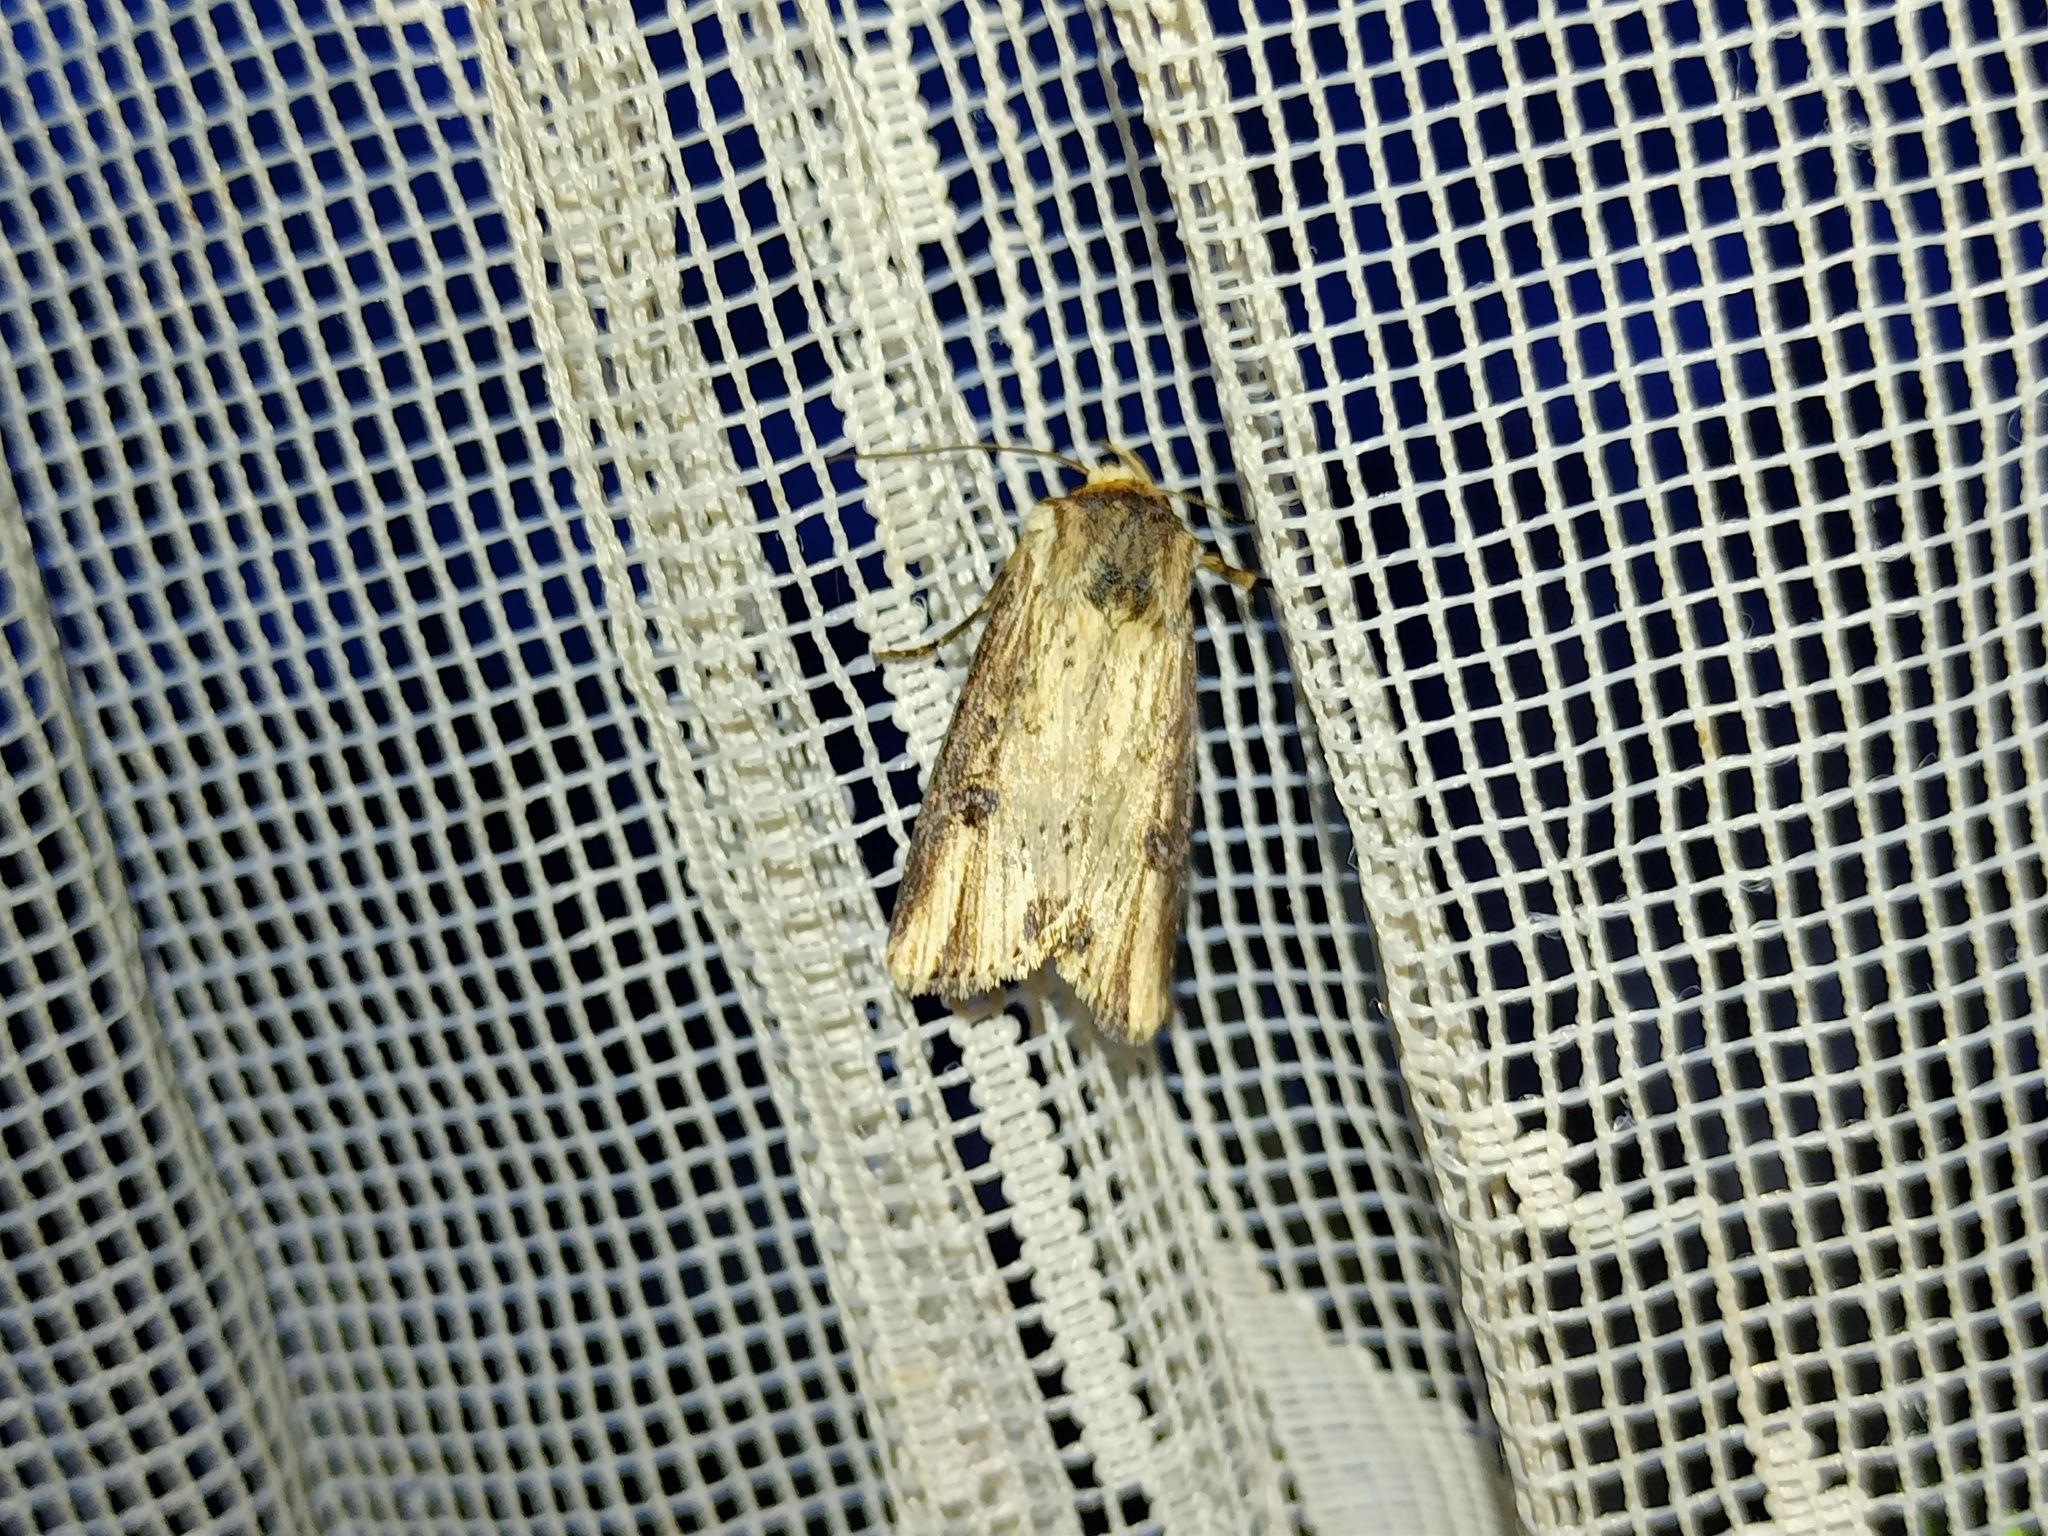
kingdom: Animalia
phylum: Arthropoda
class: Insecta
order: Lepidoptera
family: Noctuidae
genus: Axylia
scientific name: Axylia putris
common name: Flame
